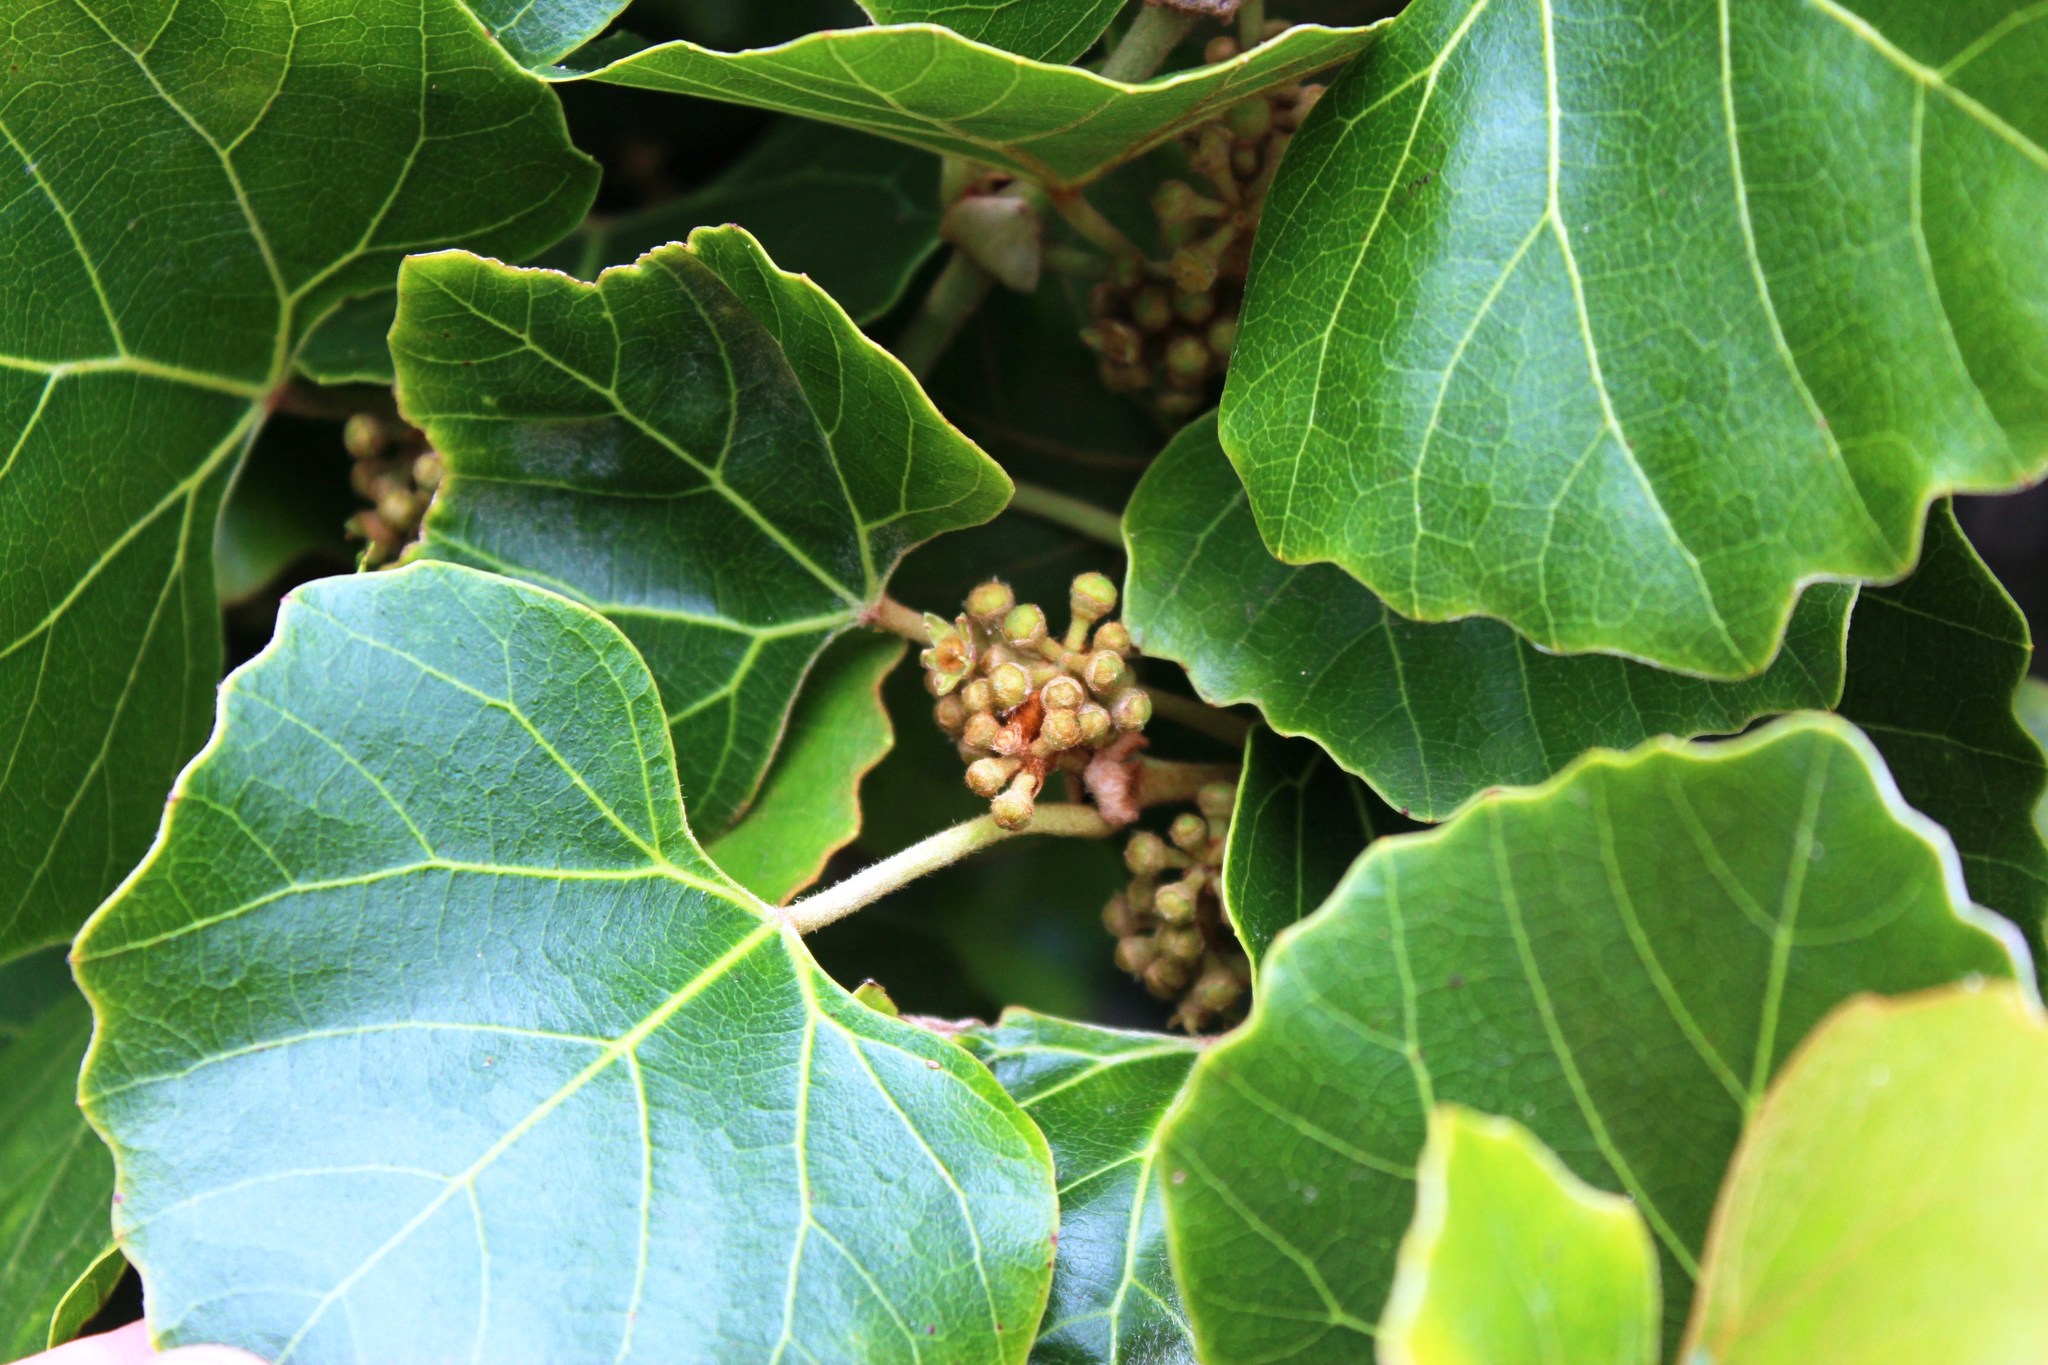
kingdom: Plantae
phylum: Tracheophyta
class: Magnoliopsida
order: Vitales
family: Vitaceae
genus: Rhoicissus
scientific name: Rhoicissus tomentosa
